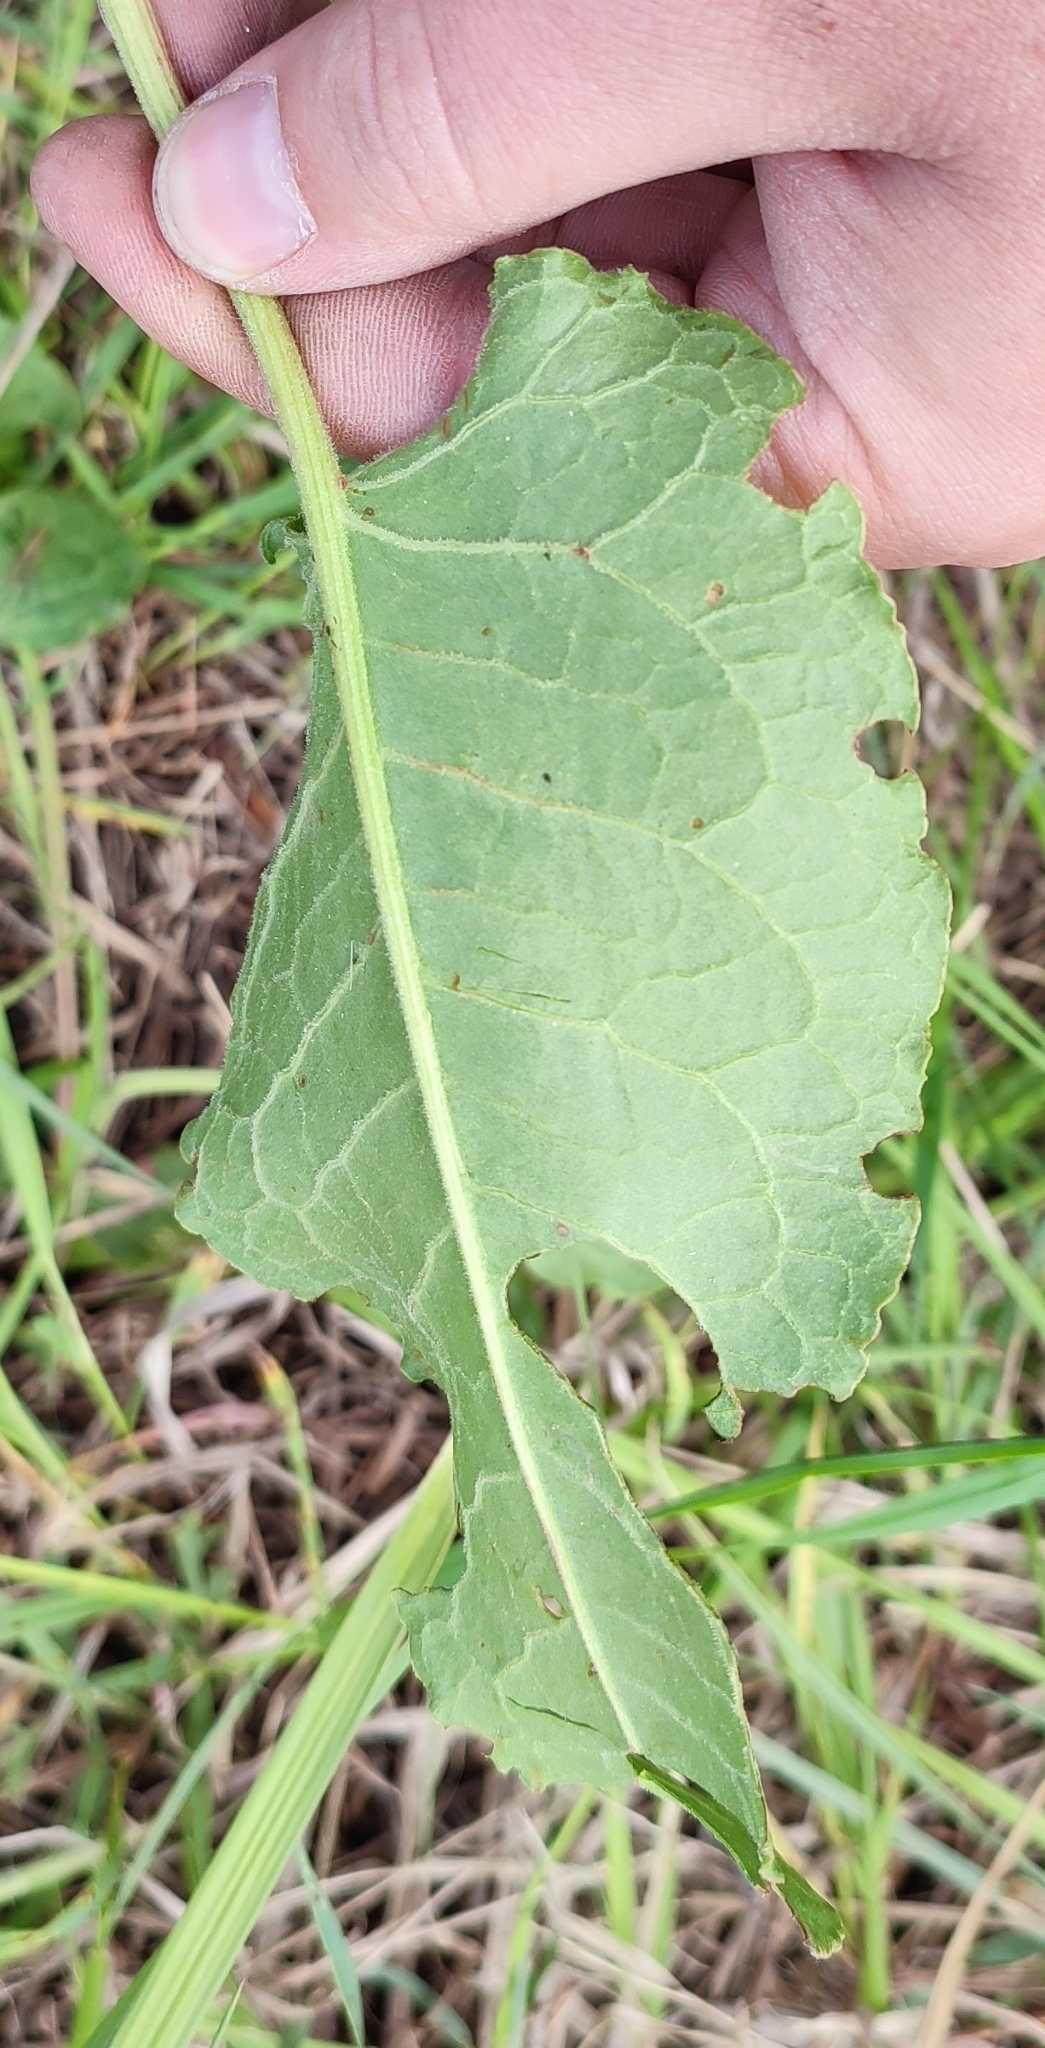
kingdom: Plantae
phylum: Tracheophyta
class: Magnoliopsida
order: Caryophyllales
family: Polygonaceae
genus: Rumex
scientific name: Rumex confertus
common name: Russian dock
